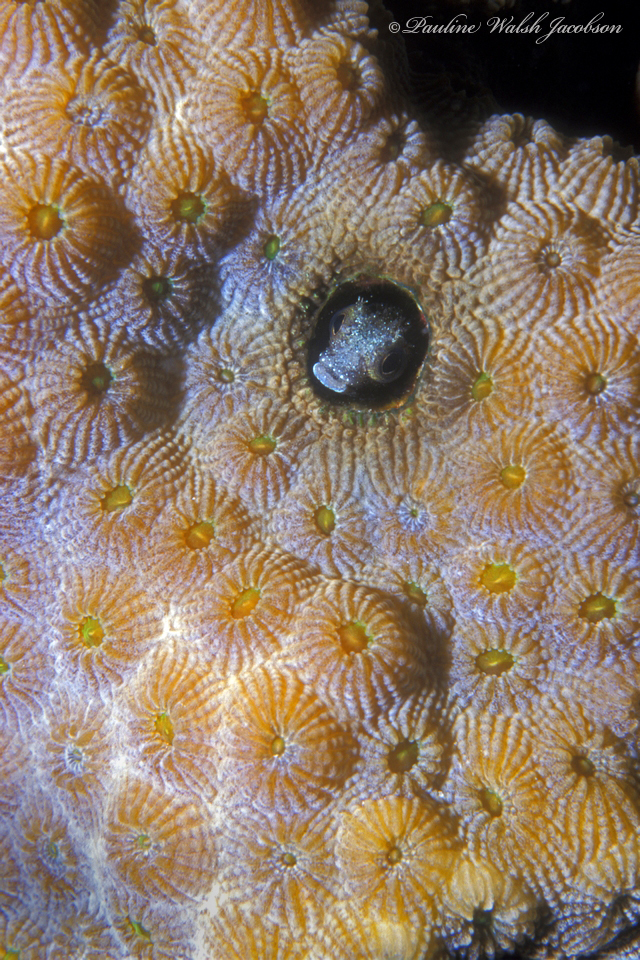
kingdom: Animalia
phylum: Chordata
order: Perciformes
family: Chaenopsidae
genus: Acanthemblemaria
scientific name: Acanthemblemaria spinosa
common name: Spinyhead blenny
